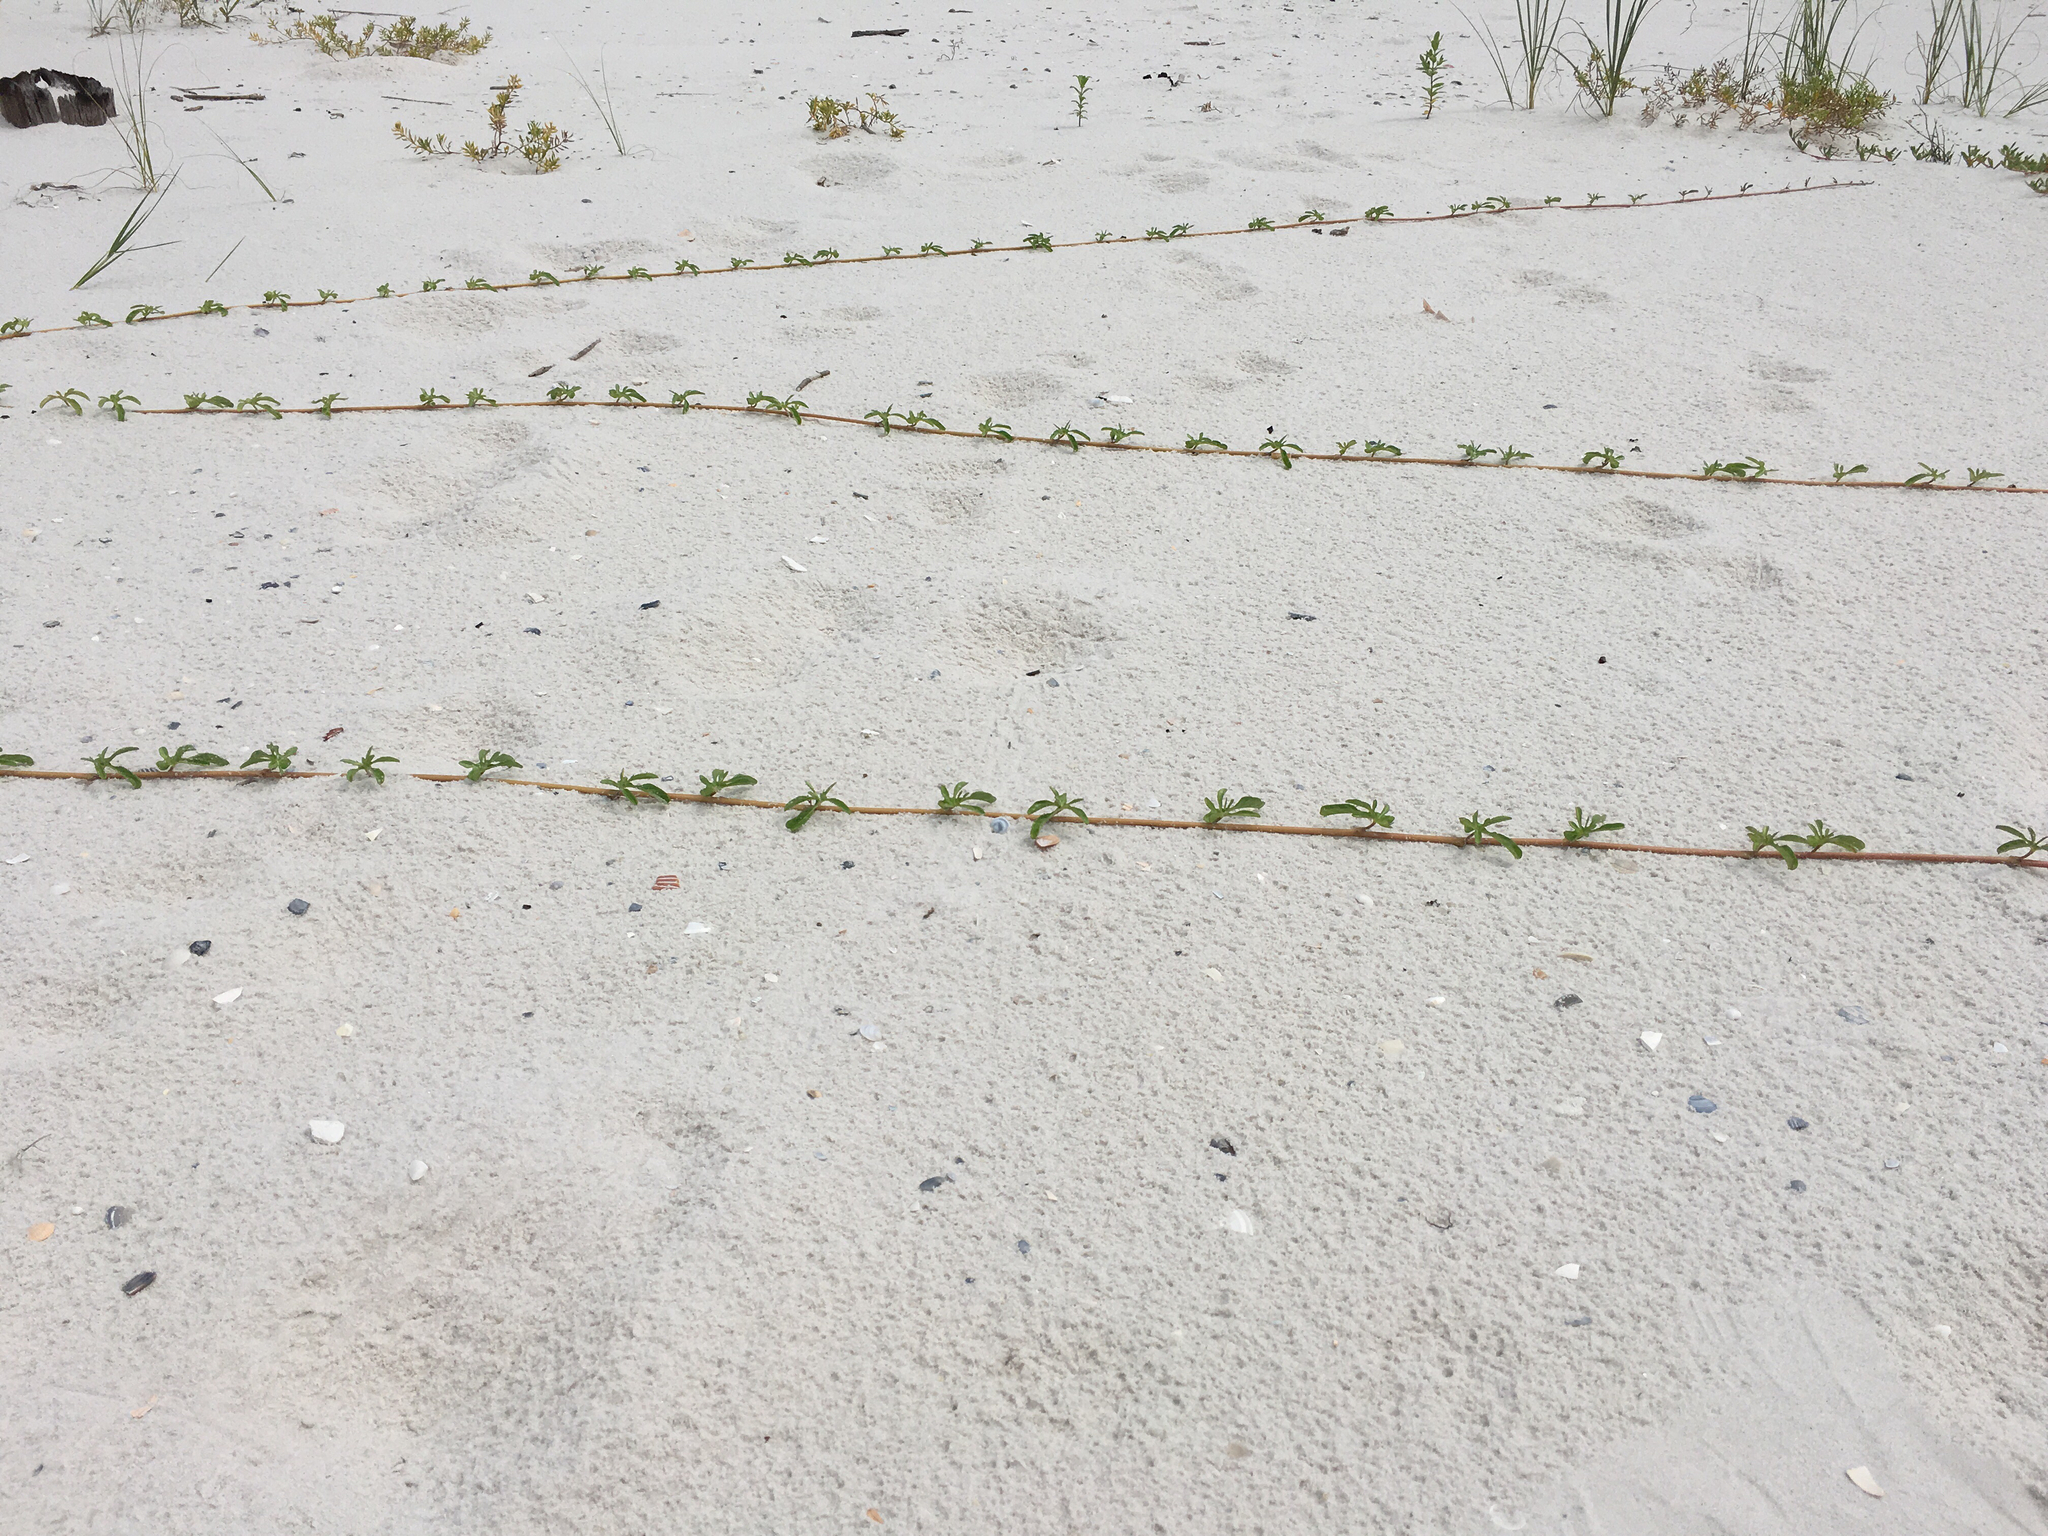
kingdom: Plantae
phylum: Tracheophyta
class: Magnoliopsida
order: Solanales
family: Convolvulaceae
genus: Ipomoea
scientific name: Ipomoea imperati
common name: Fiddle-leaf morning-glory
